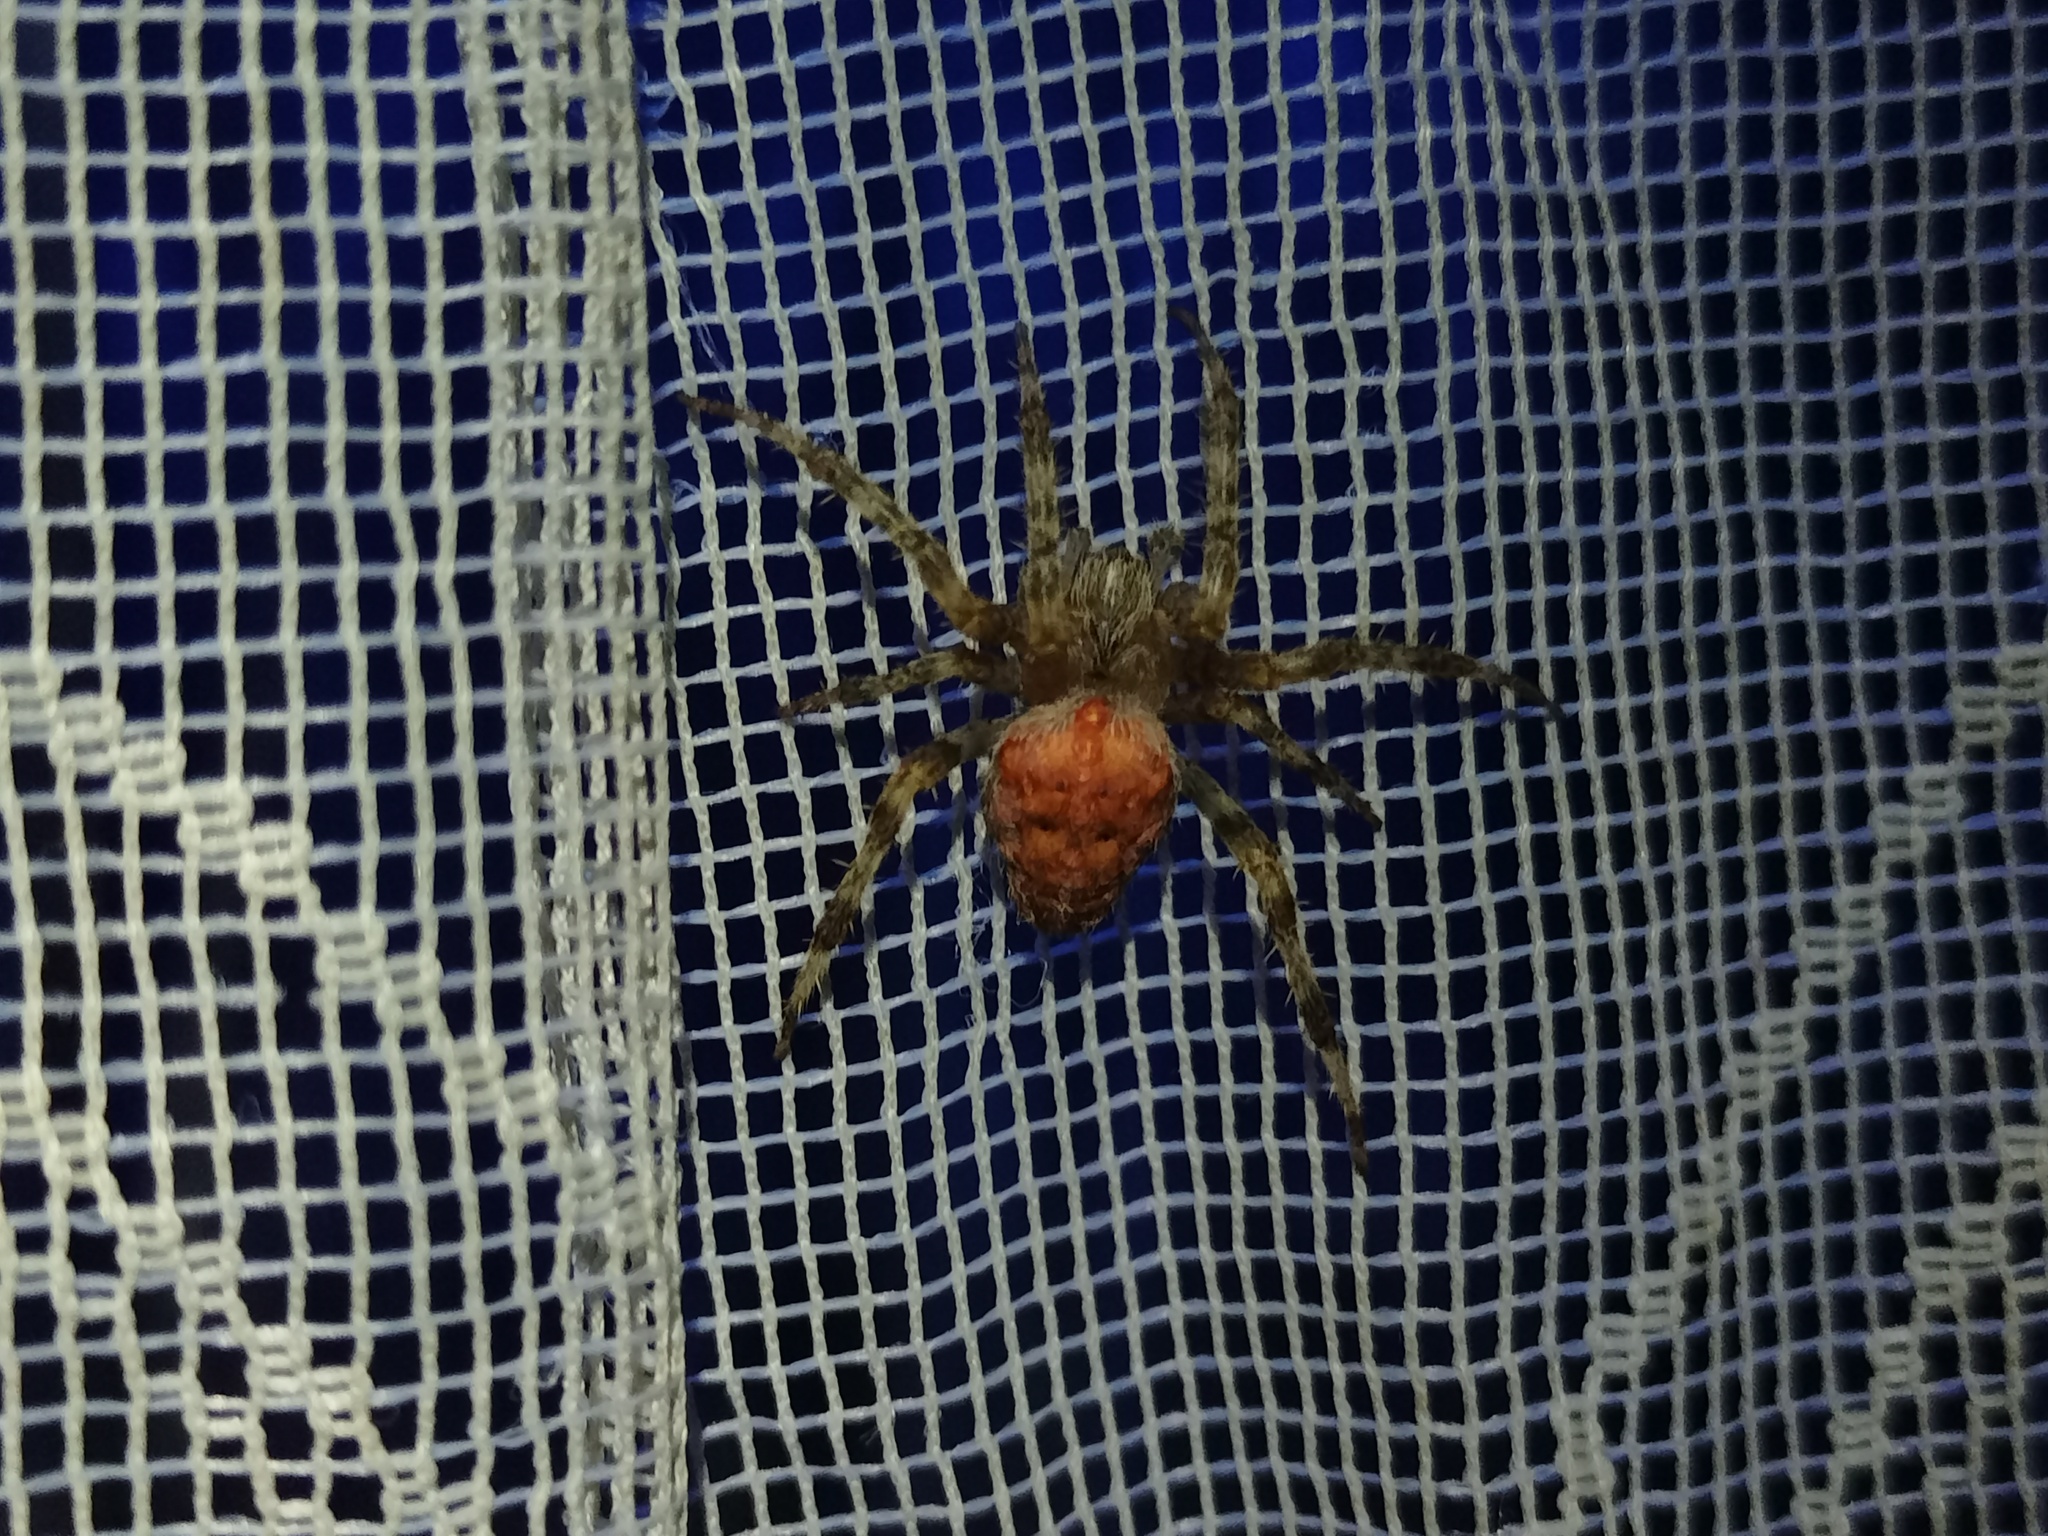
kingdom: Animalia
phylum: Arthropoda
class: Arachnida
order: Araneae
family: Araneidae
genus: Araneus
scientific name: Araneus diadematus
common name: Cross orbweaver
